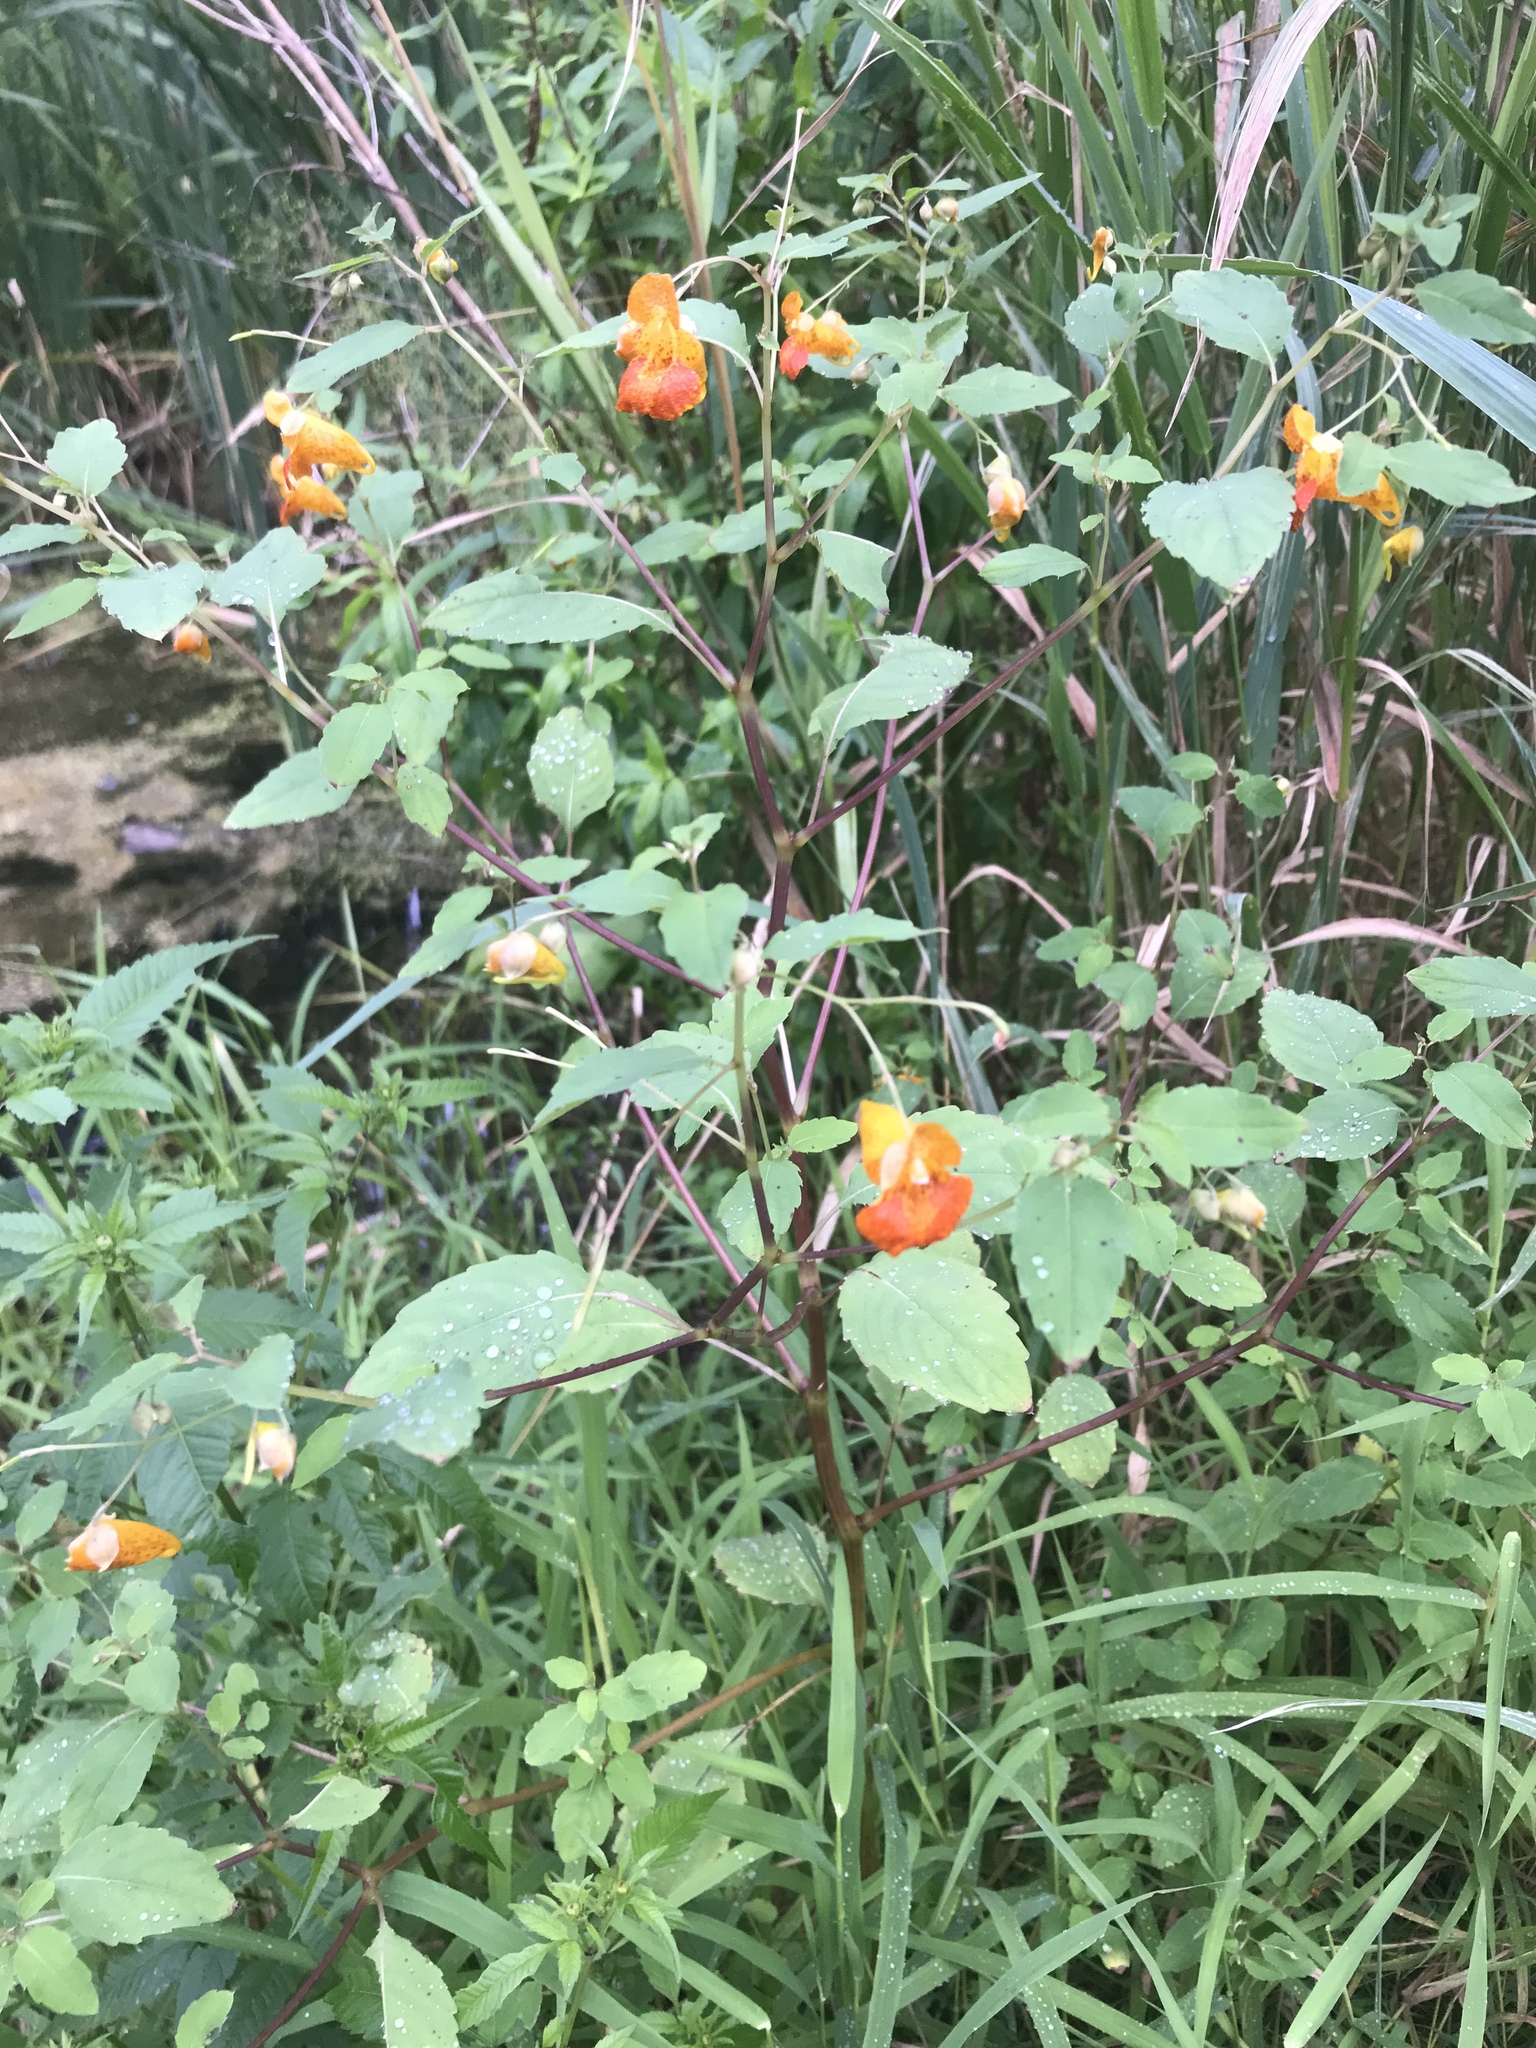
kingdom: Plantae
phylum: Tracheophyta
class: Magnoliopsida
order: Ericales
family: Balsaminaceae
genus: Impatiens
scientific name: Impatiens capensis
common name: Orange balsam
